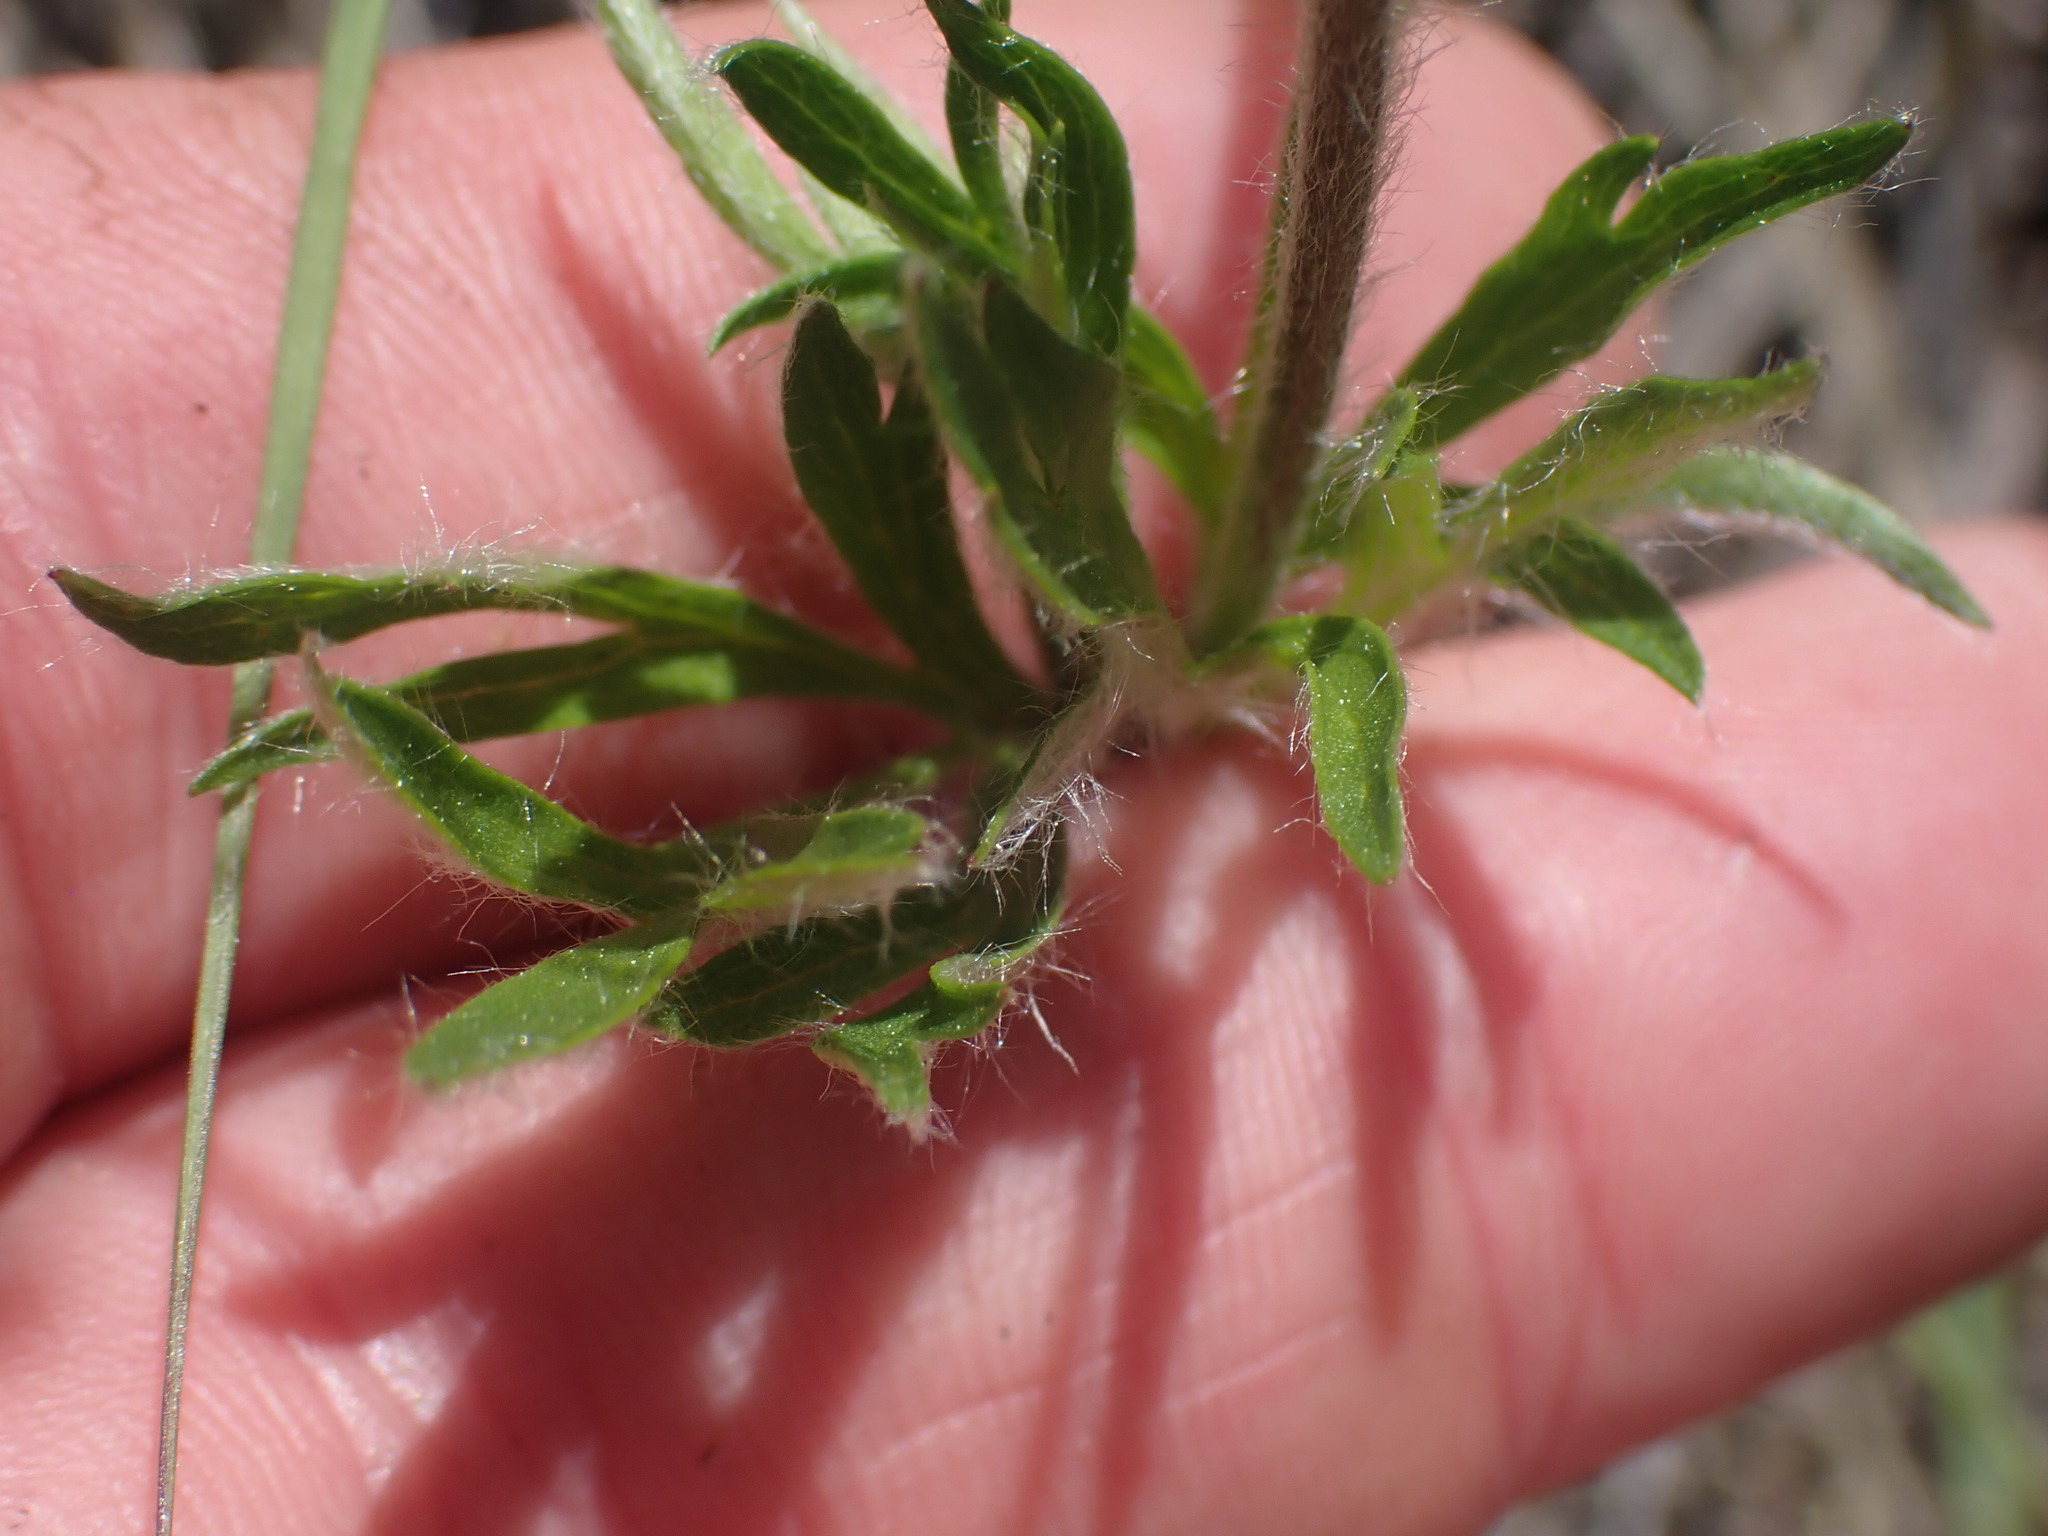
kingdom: Plantae
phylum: Tracheophyta
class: Magnoliopsida
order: Ranunculales
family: Ranunculaceae
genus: Anemone
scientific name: Anemone multifida
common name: Bird's-foot anemone
